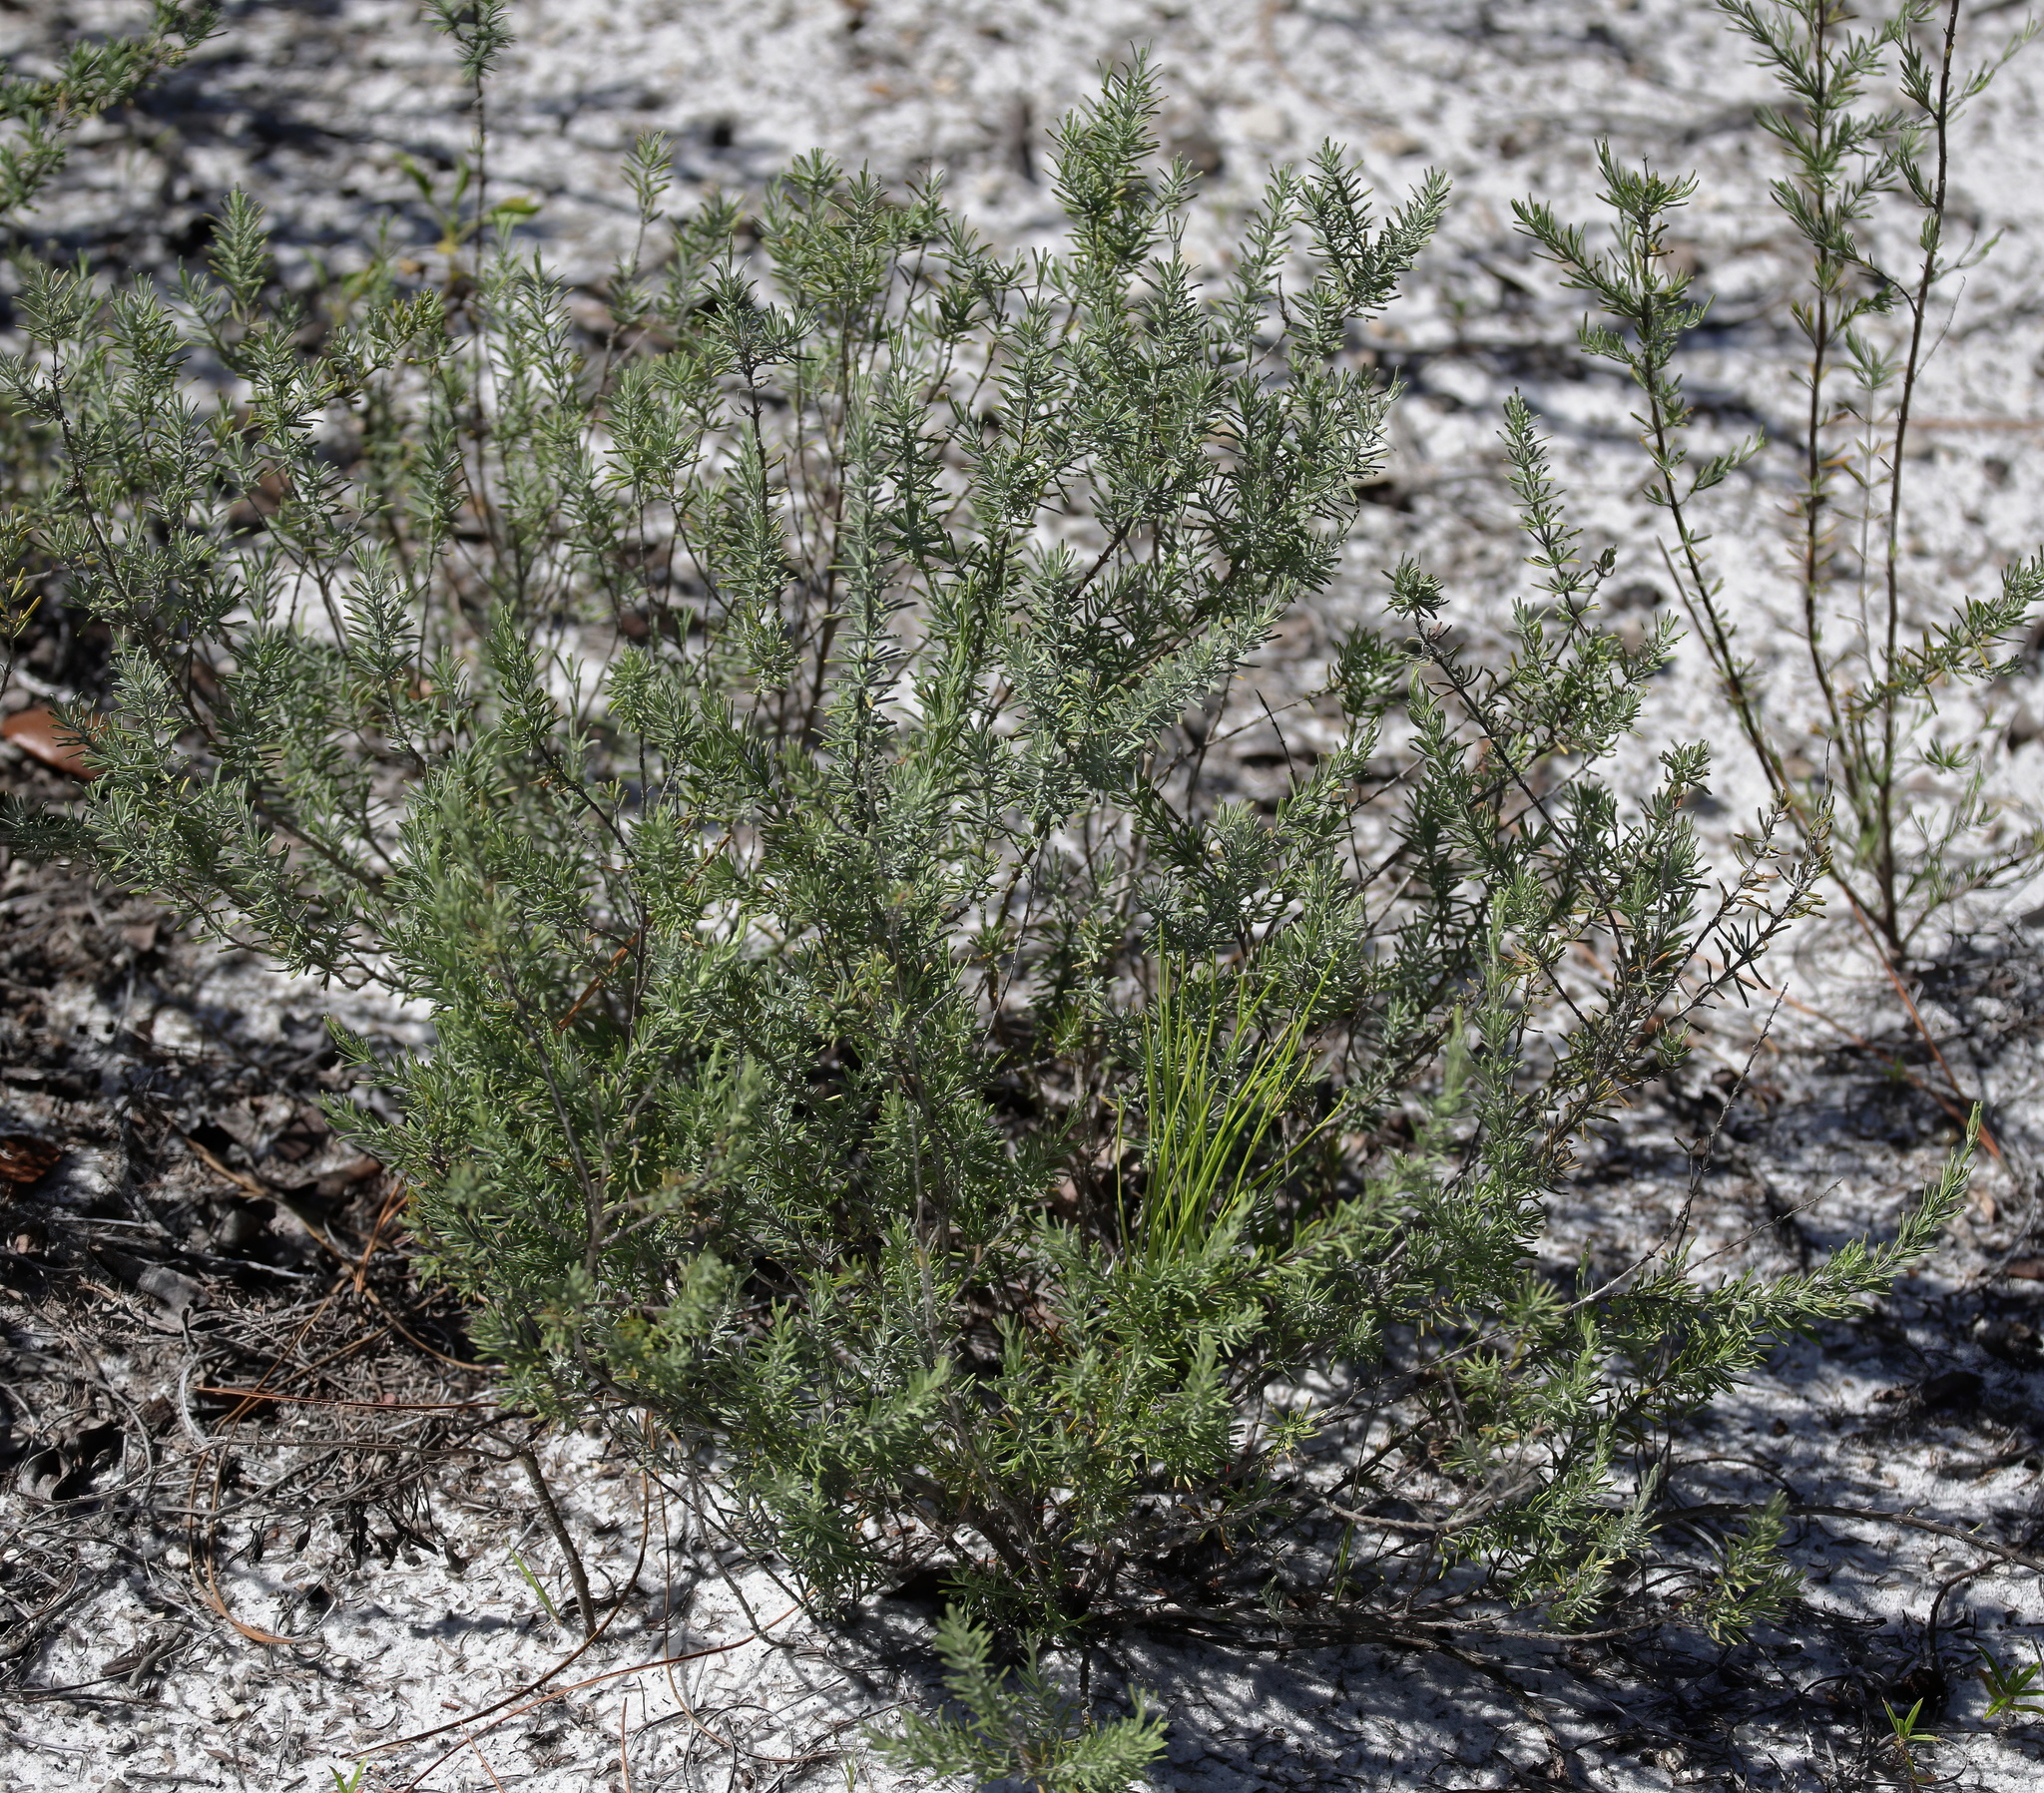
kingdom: Plantae
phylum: Tracheophyta
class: Magnoliopsida
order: Lamiales
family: Lamiaceae
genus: Conradina
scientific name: Conradina canescens
